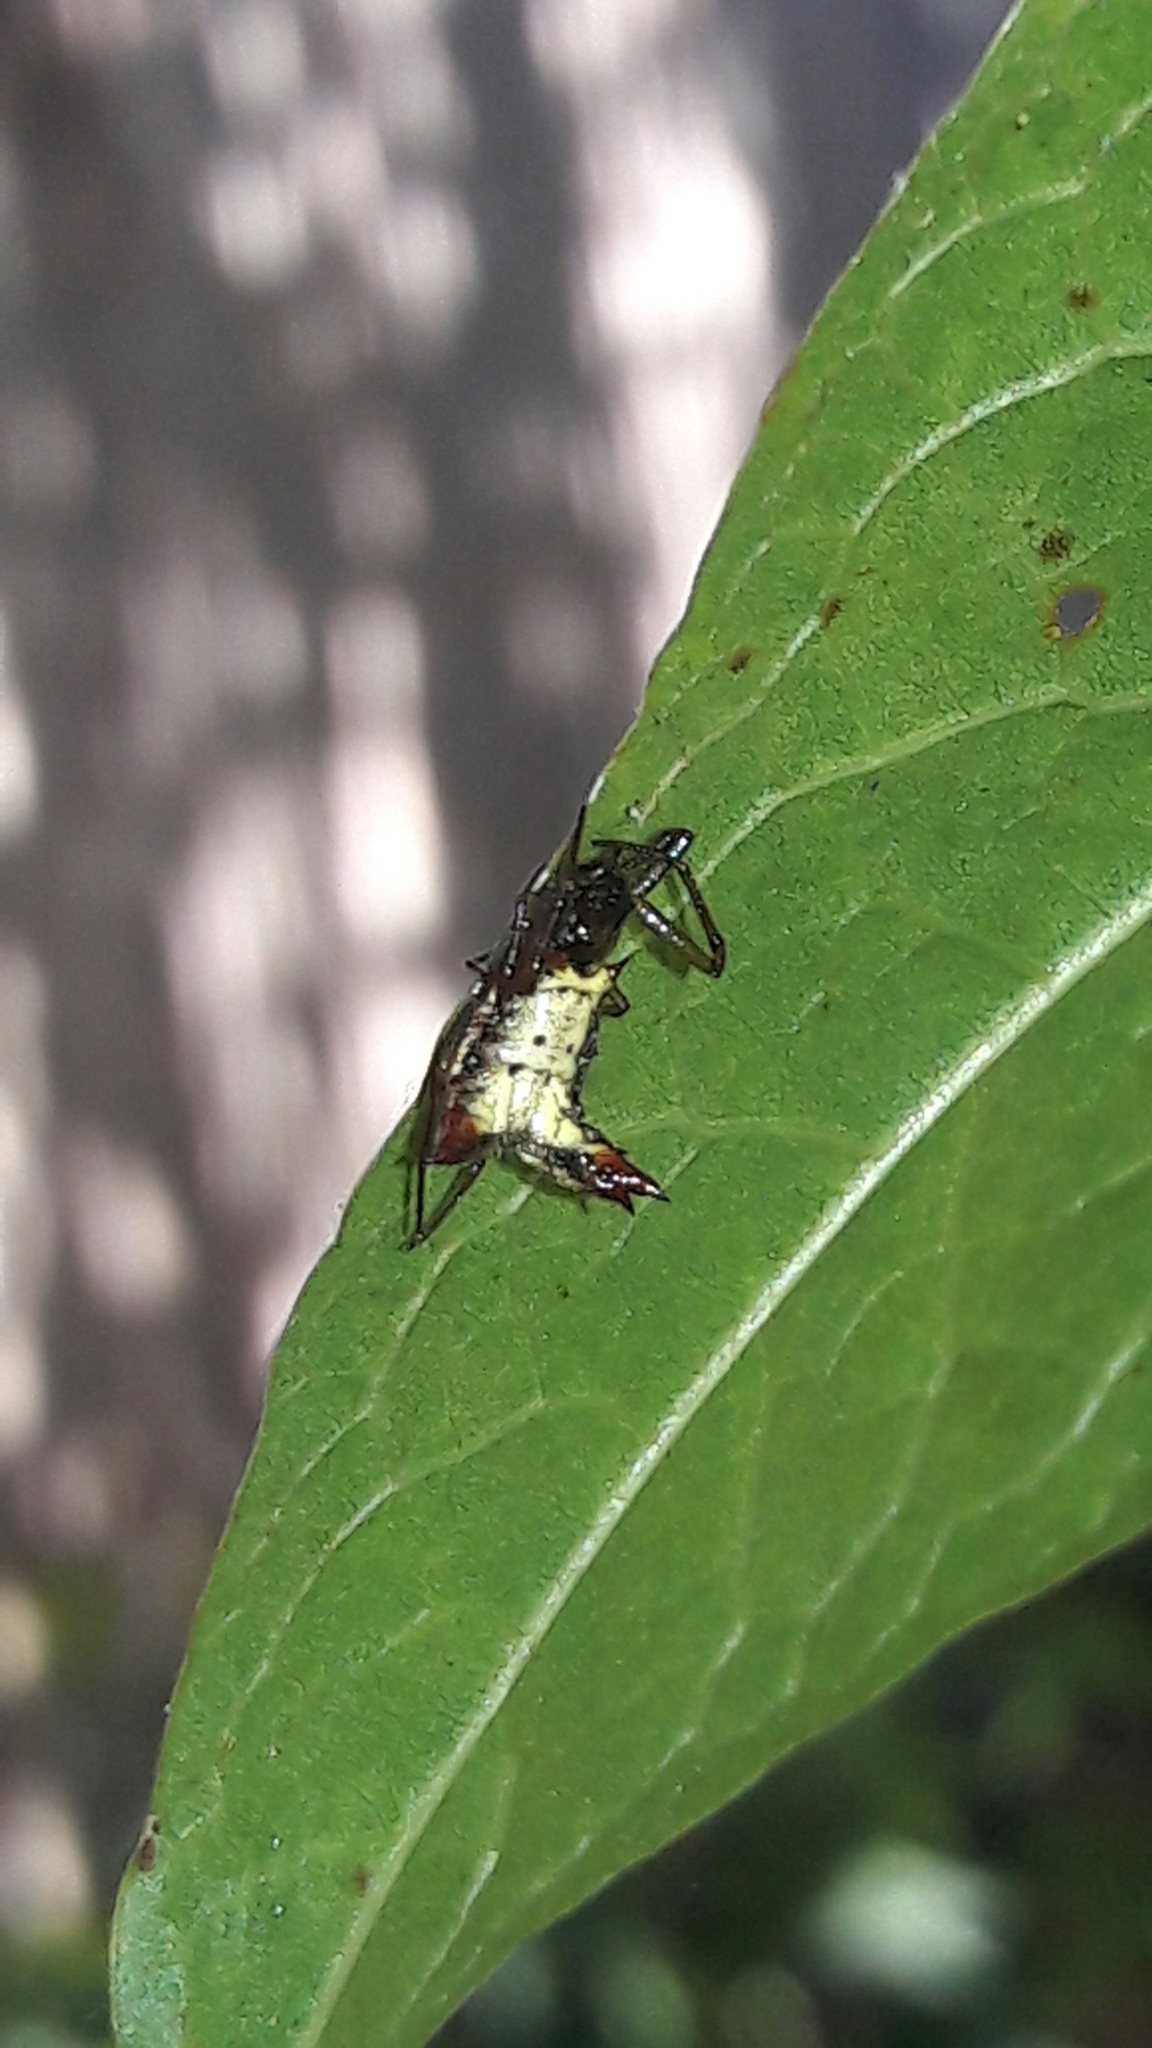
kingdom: Animalia
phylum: Arthropoda
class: Arachnida
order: Araneae
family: Araneidae
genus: Micrathena
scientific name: Micrathena plana
